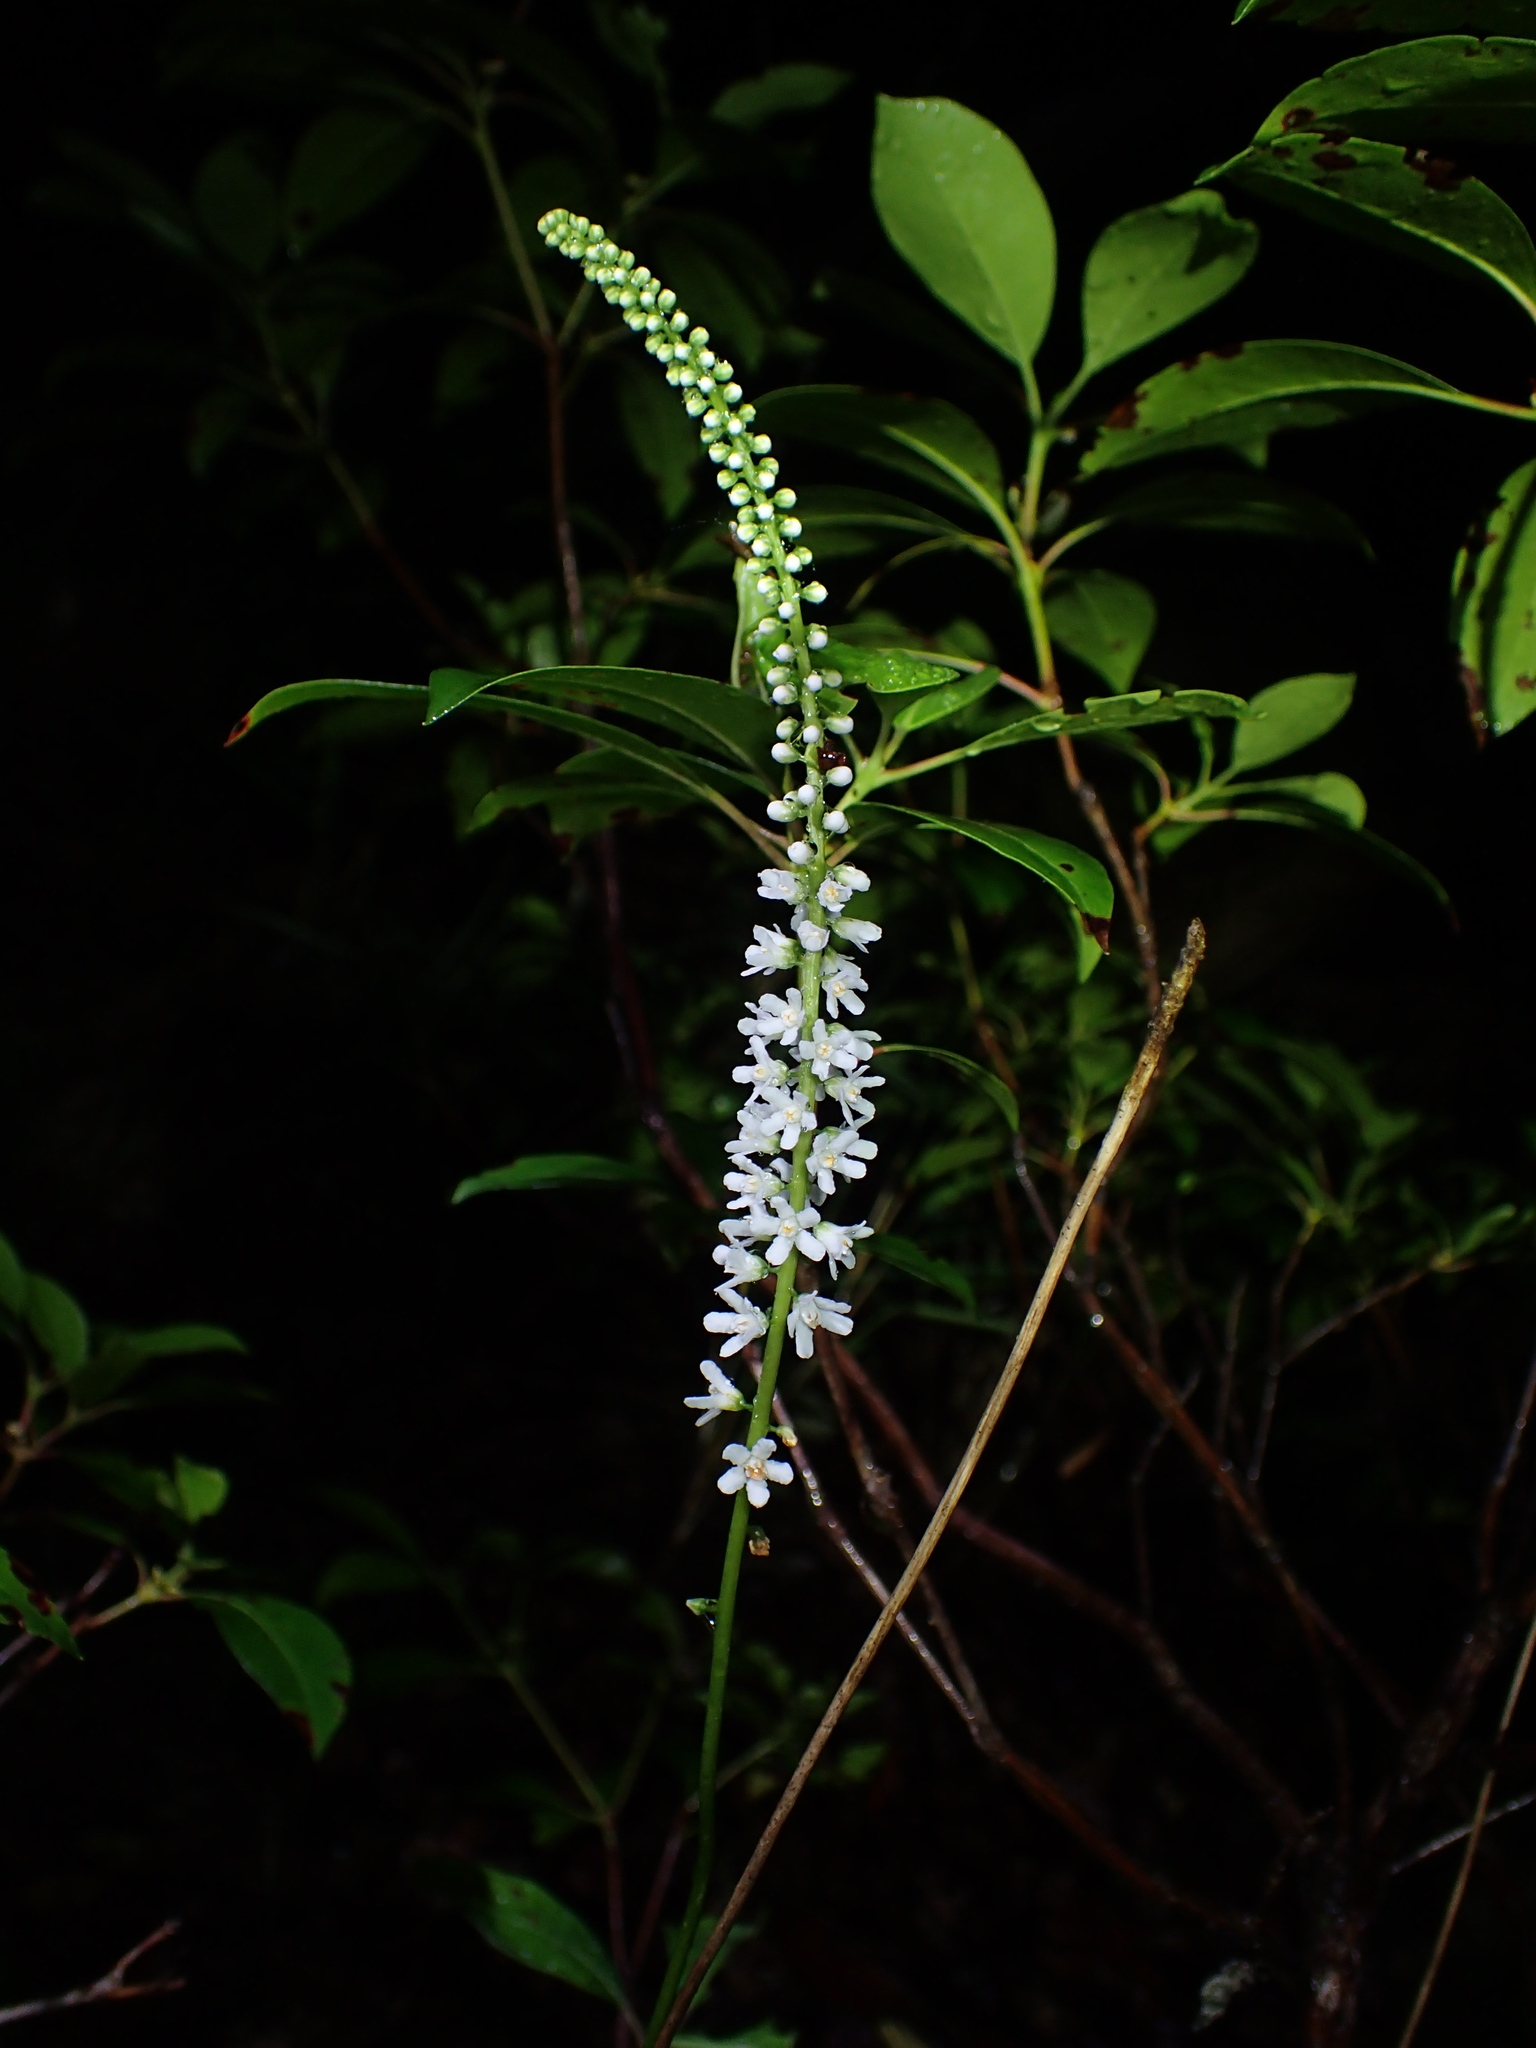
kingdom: Plantae
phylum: Tracheophyta
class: Magnoliopsida
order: Ericales
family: Diapensiaceae
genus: Galax
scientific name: Galax urceolata
